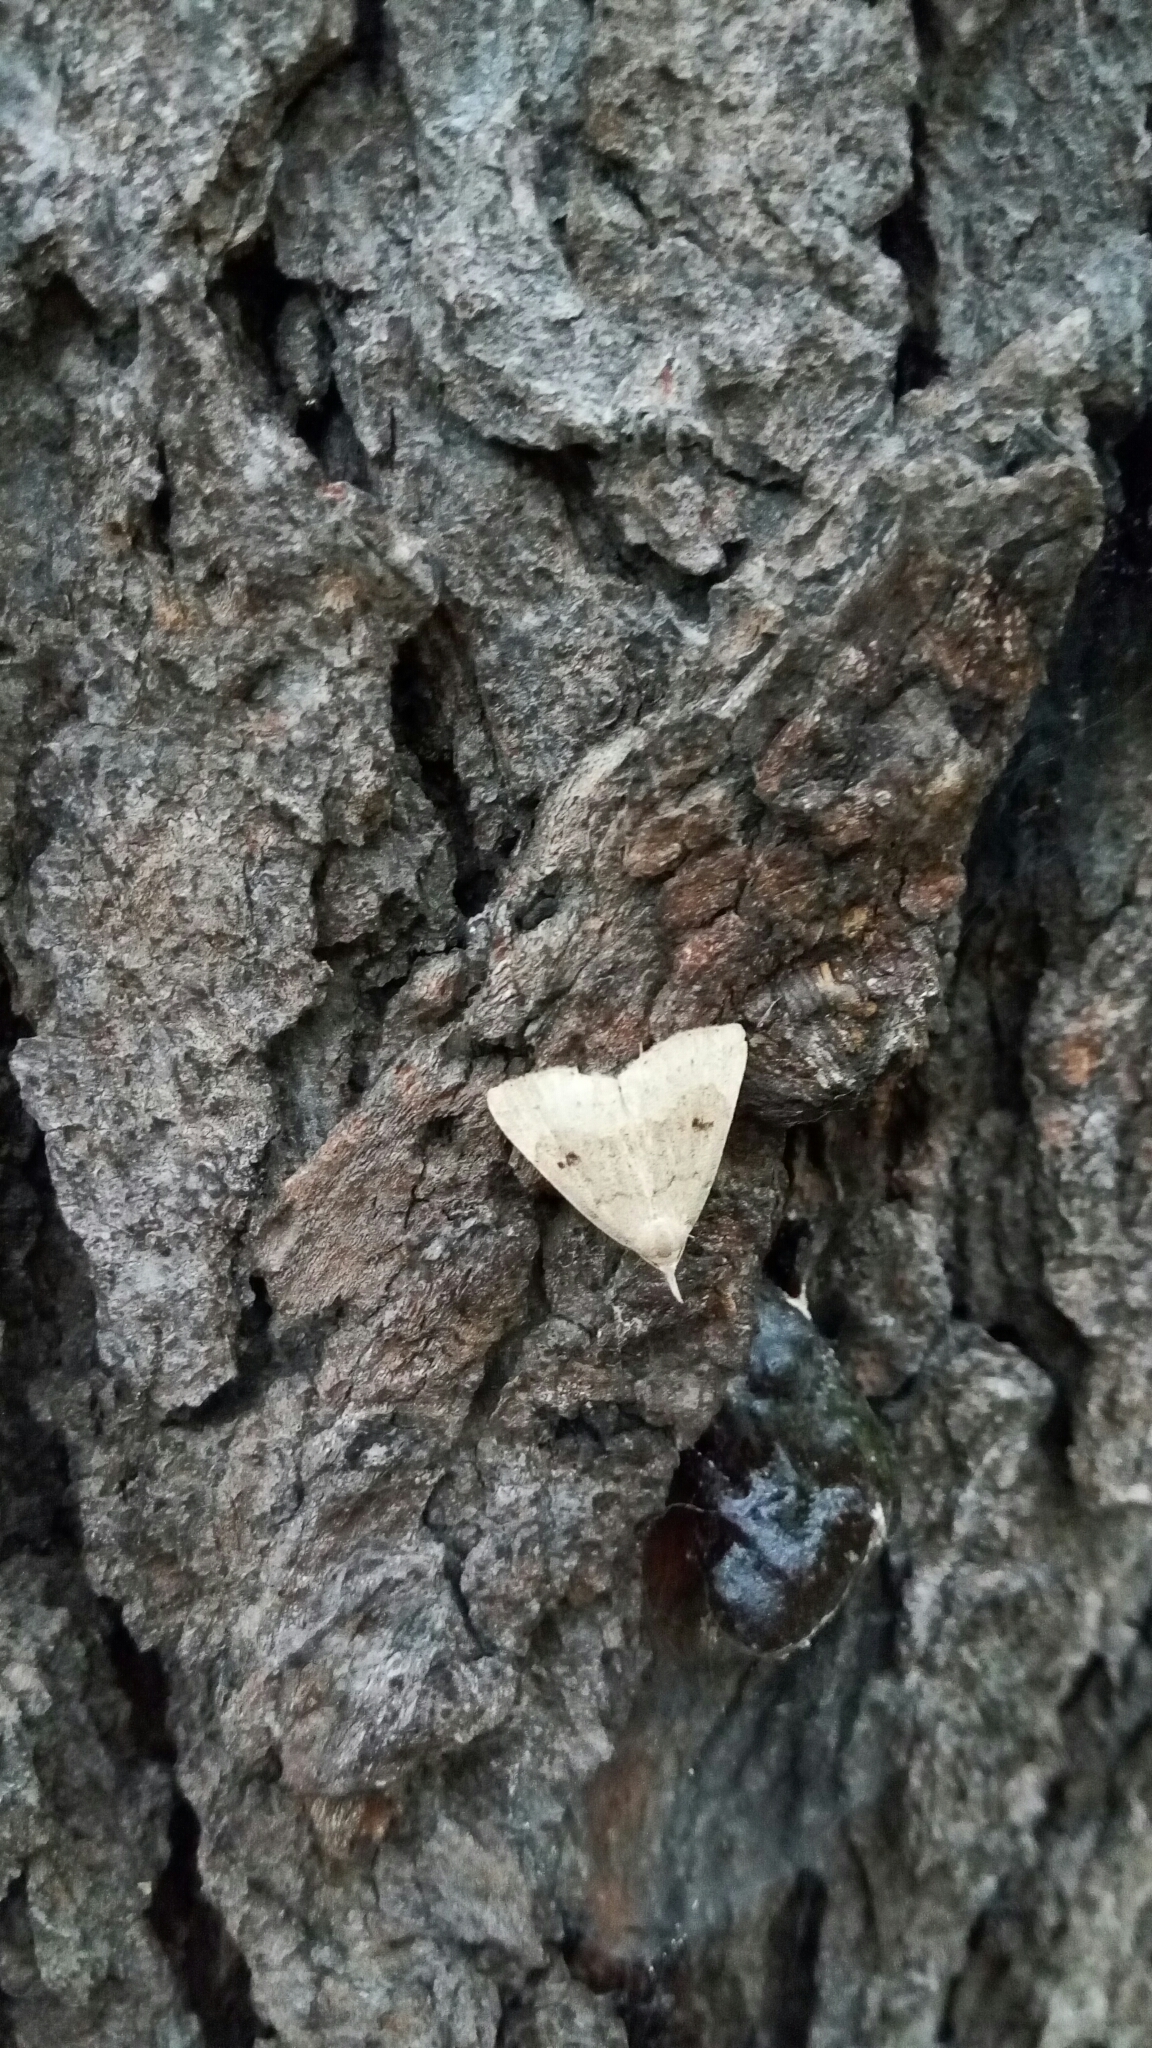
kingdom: Animalia
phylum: Arthropoda
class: Insecta
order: Lepidoptera
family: Erebidae
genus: Macrochilo
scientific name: Macrochilo morbidalis
